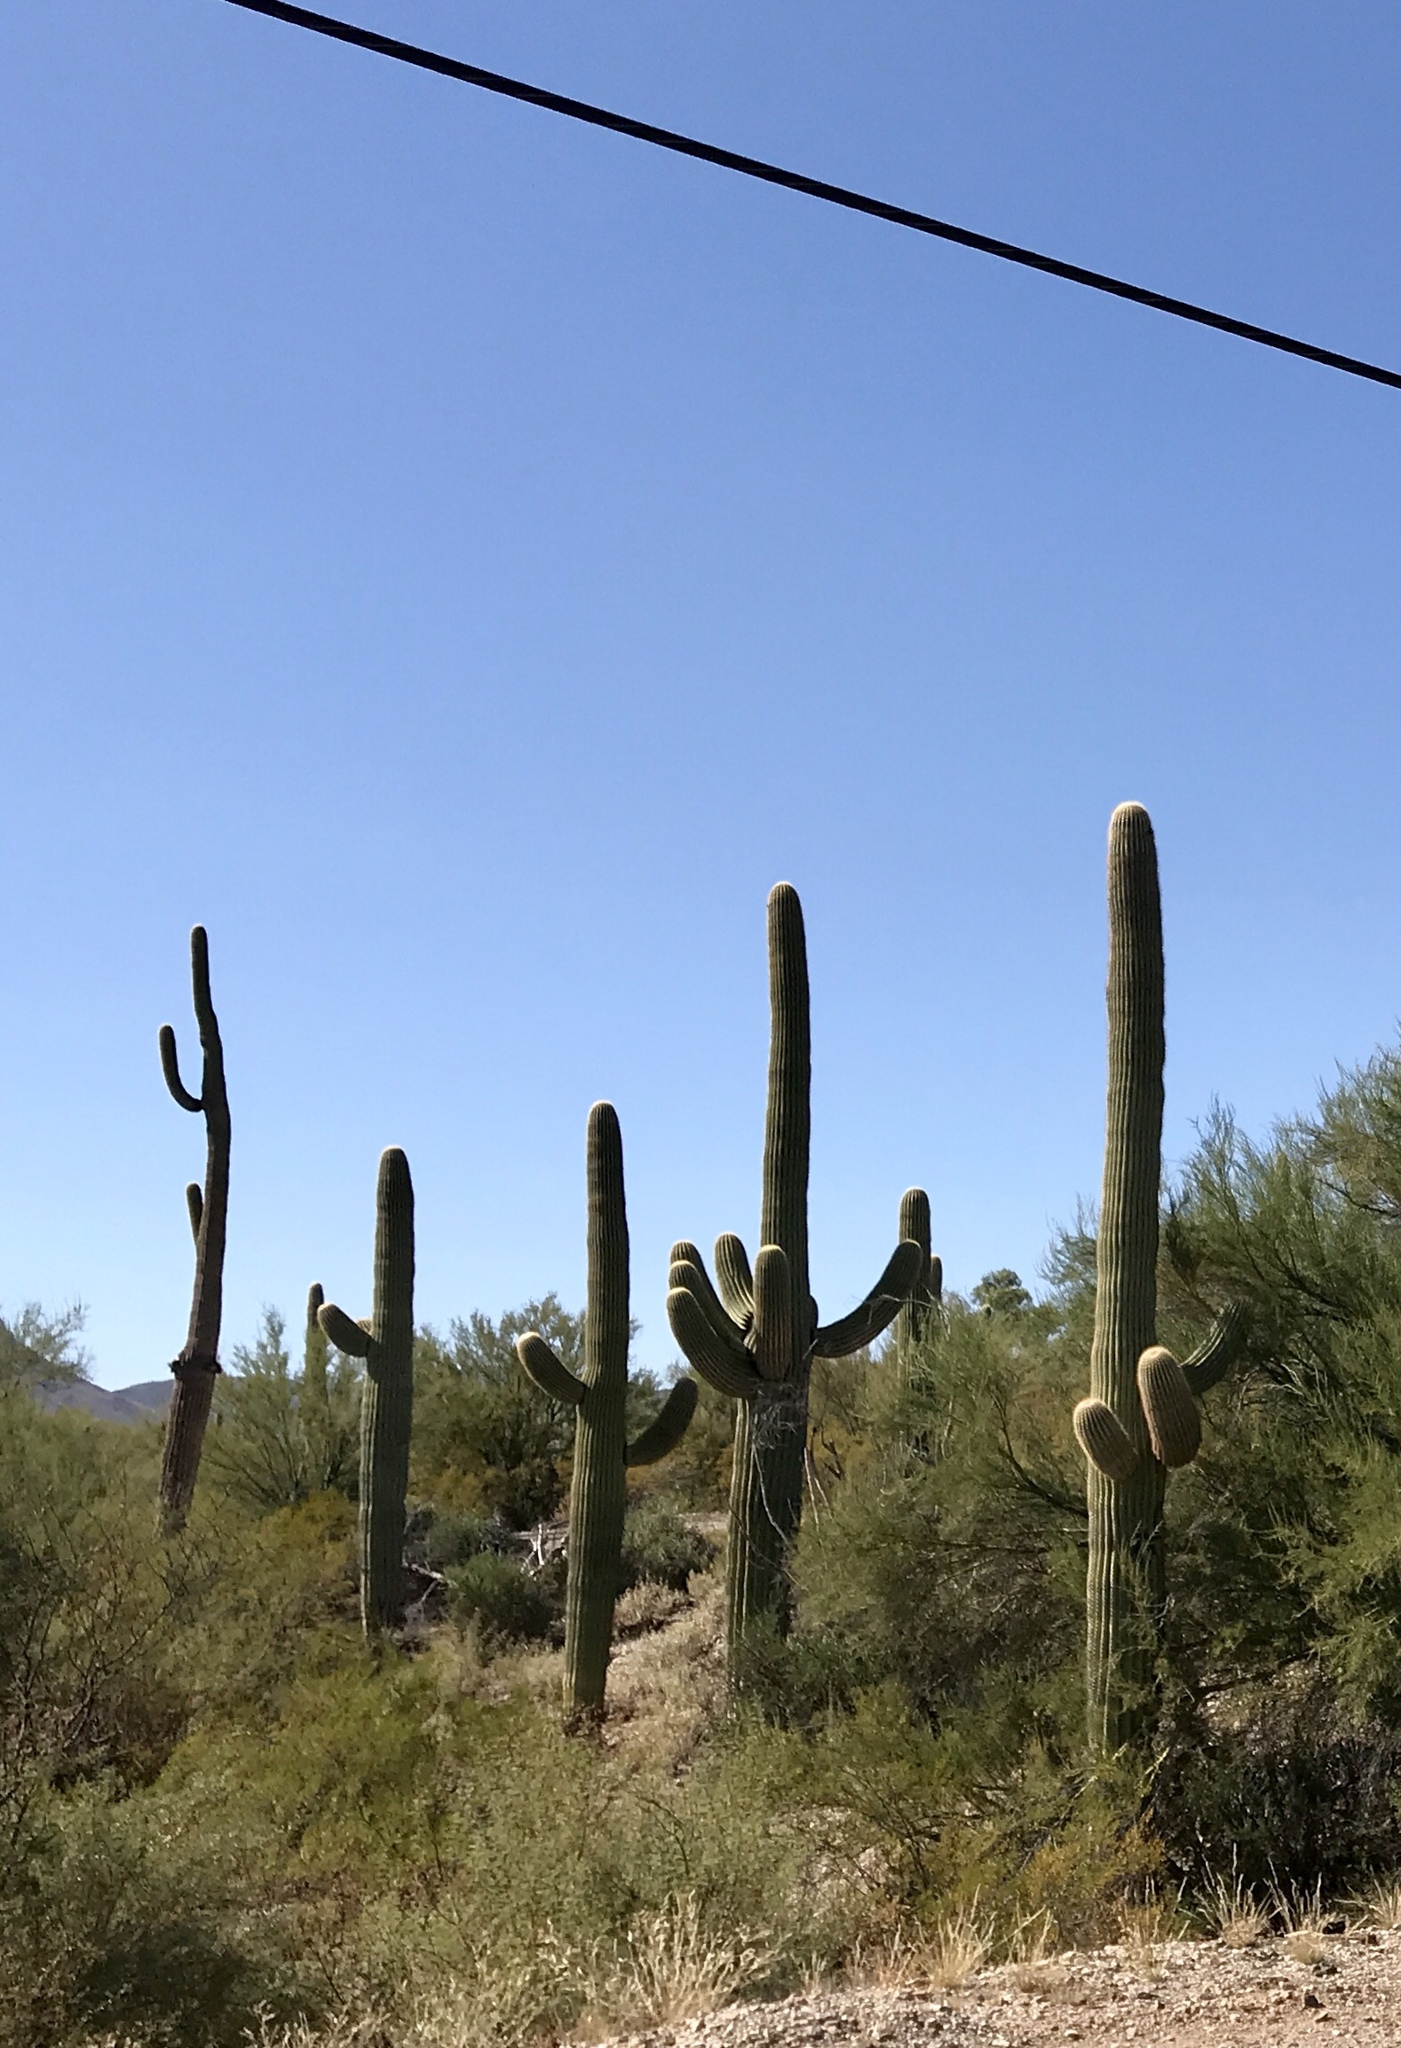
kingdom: Plantae
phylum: Tracheophyta
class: Magnoliopsida
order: Caryophyllales
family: Cactaceae
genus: Carnegiea
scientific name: Carnegiea gigantea
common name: Saguaro
